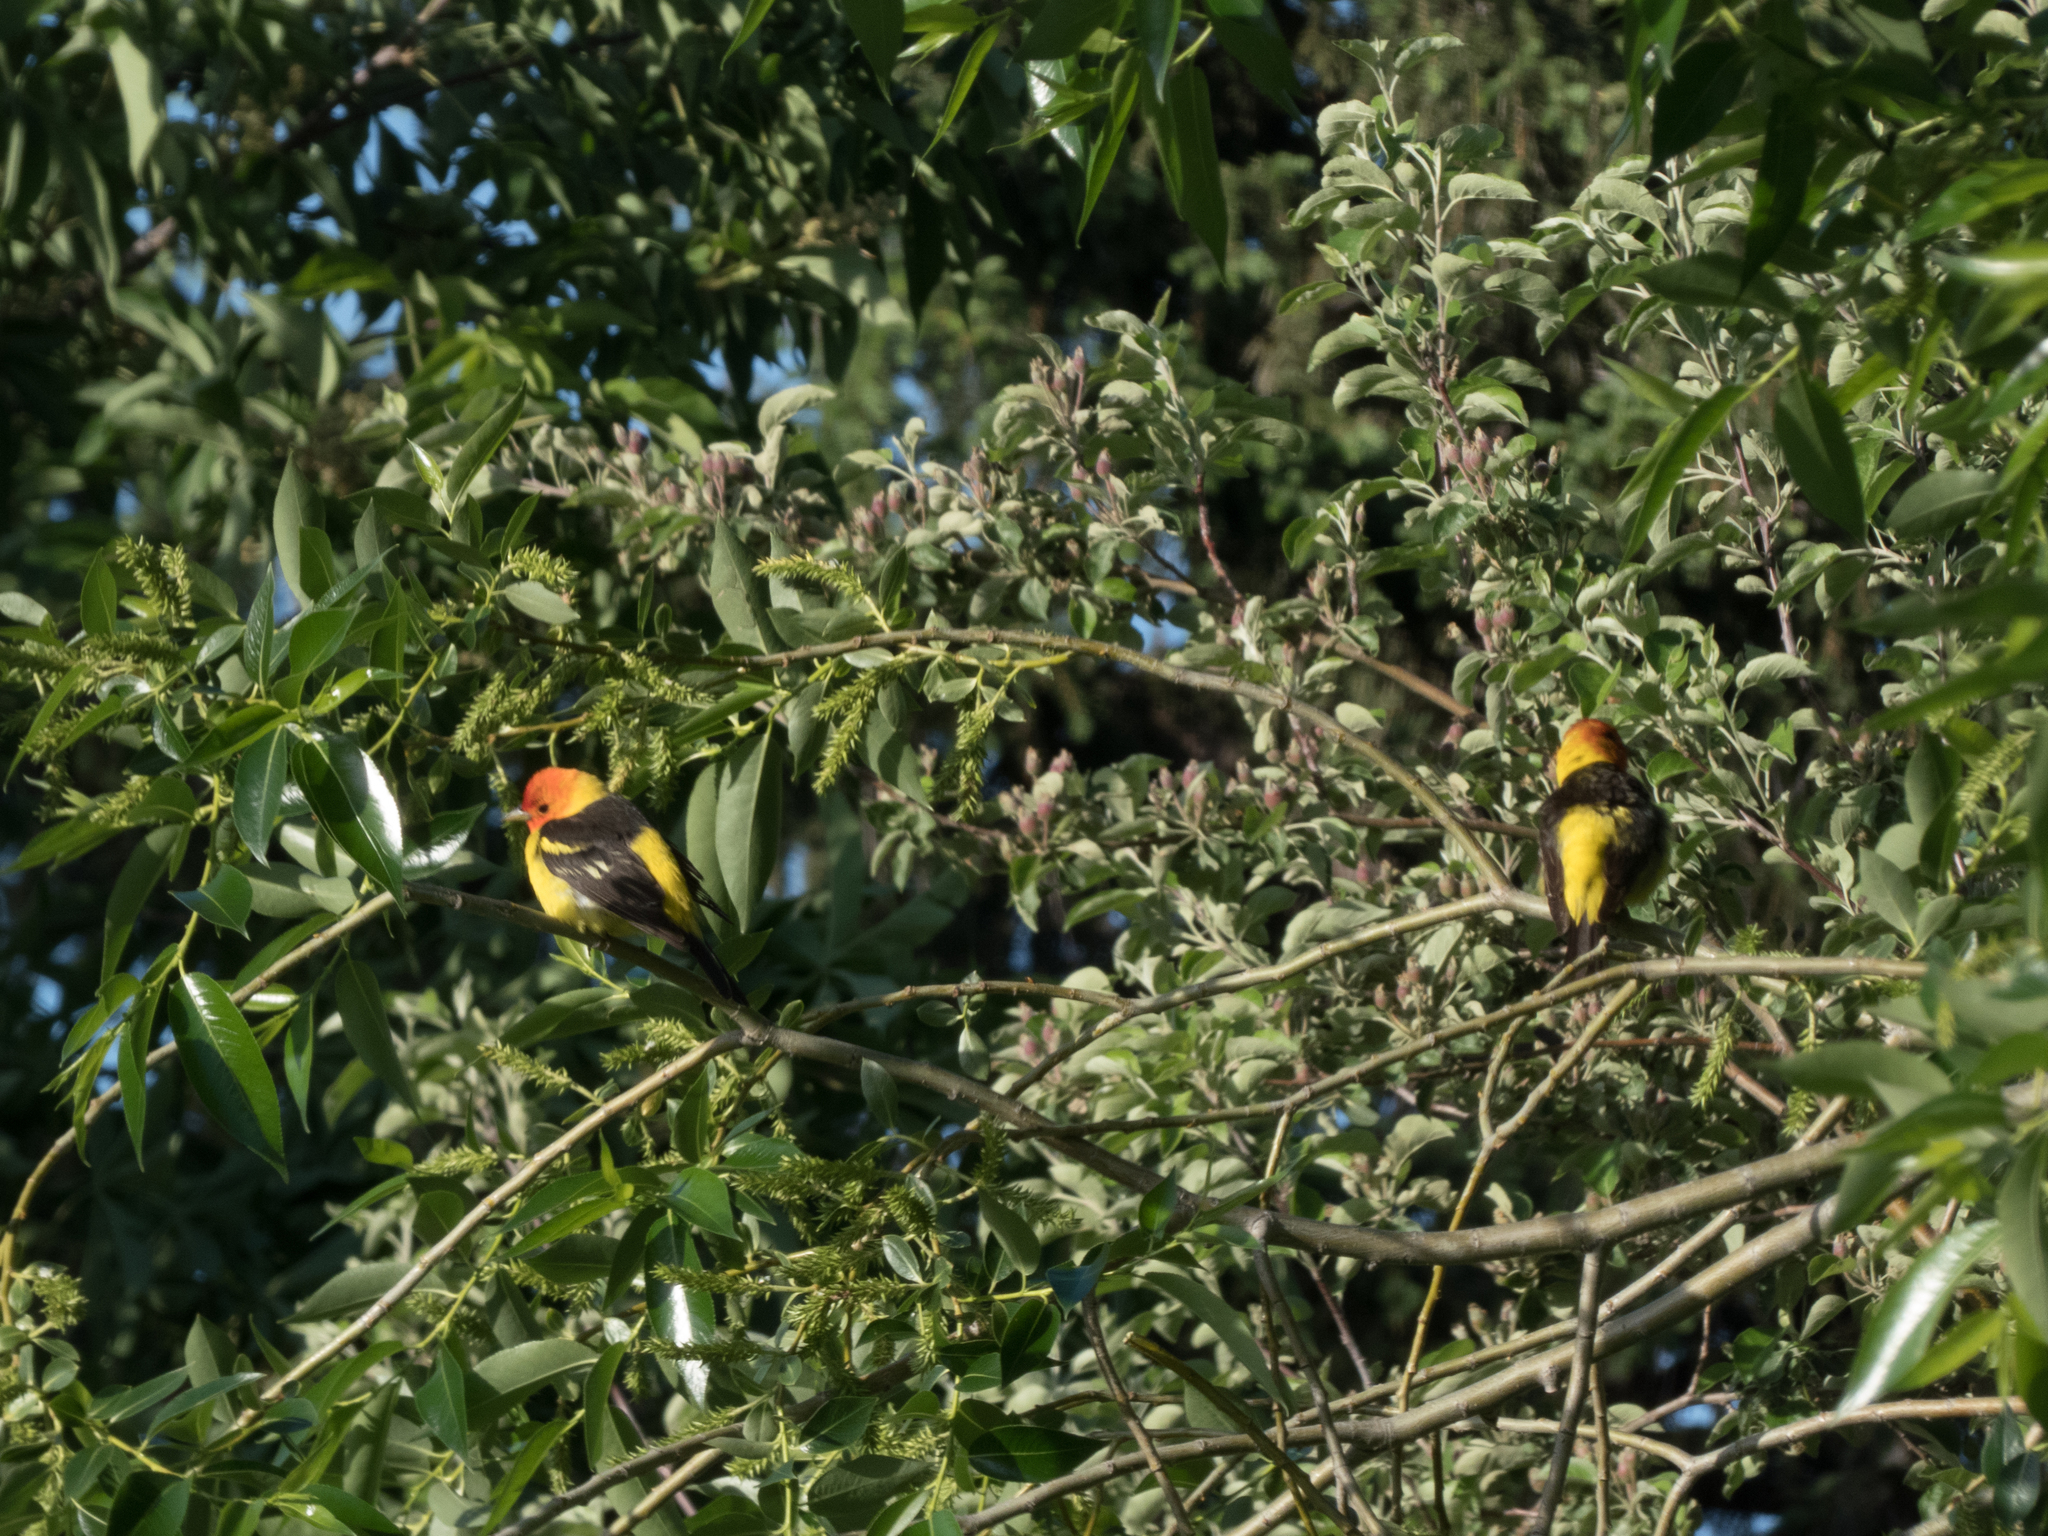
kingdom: Animalia
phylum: Chordata
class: Aves
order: Passeriformes
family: Cardinalidae
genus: Piranga
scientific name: Piranga ludoviciana
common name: Western tanager
